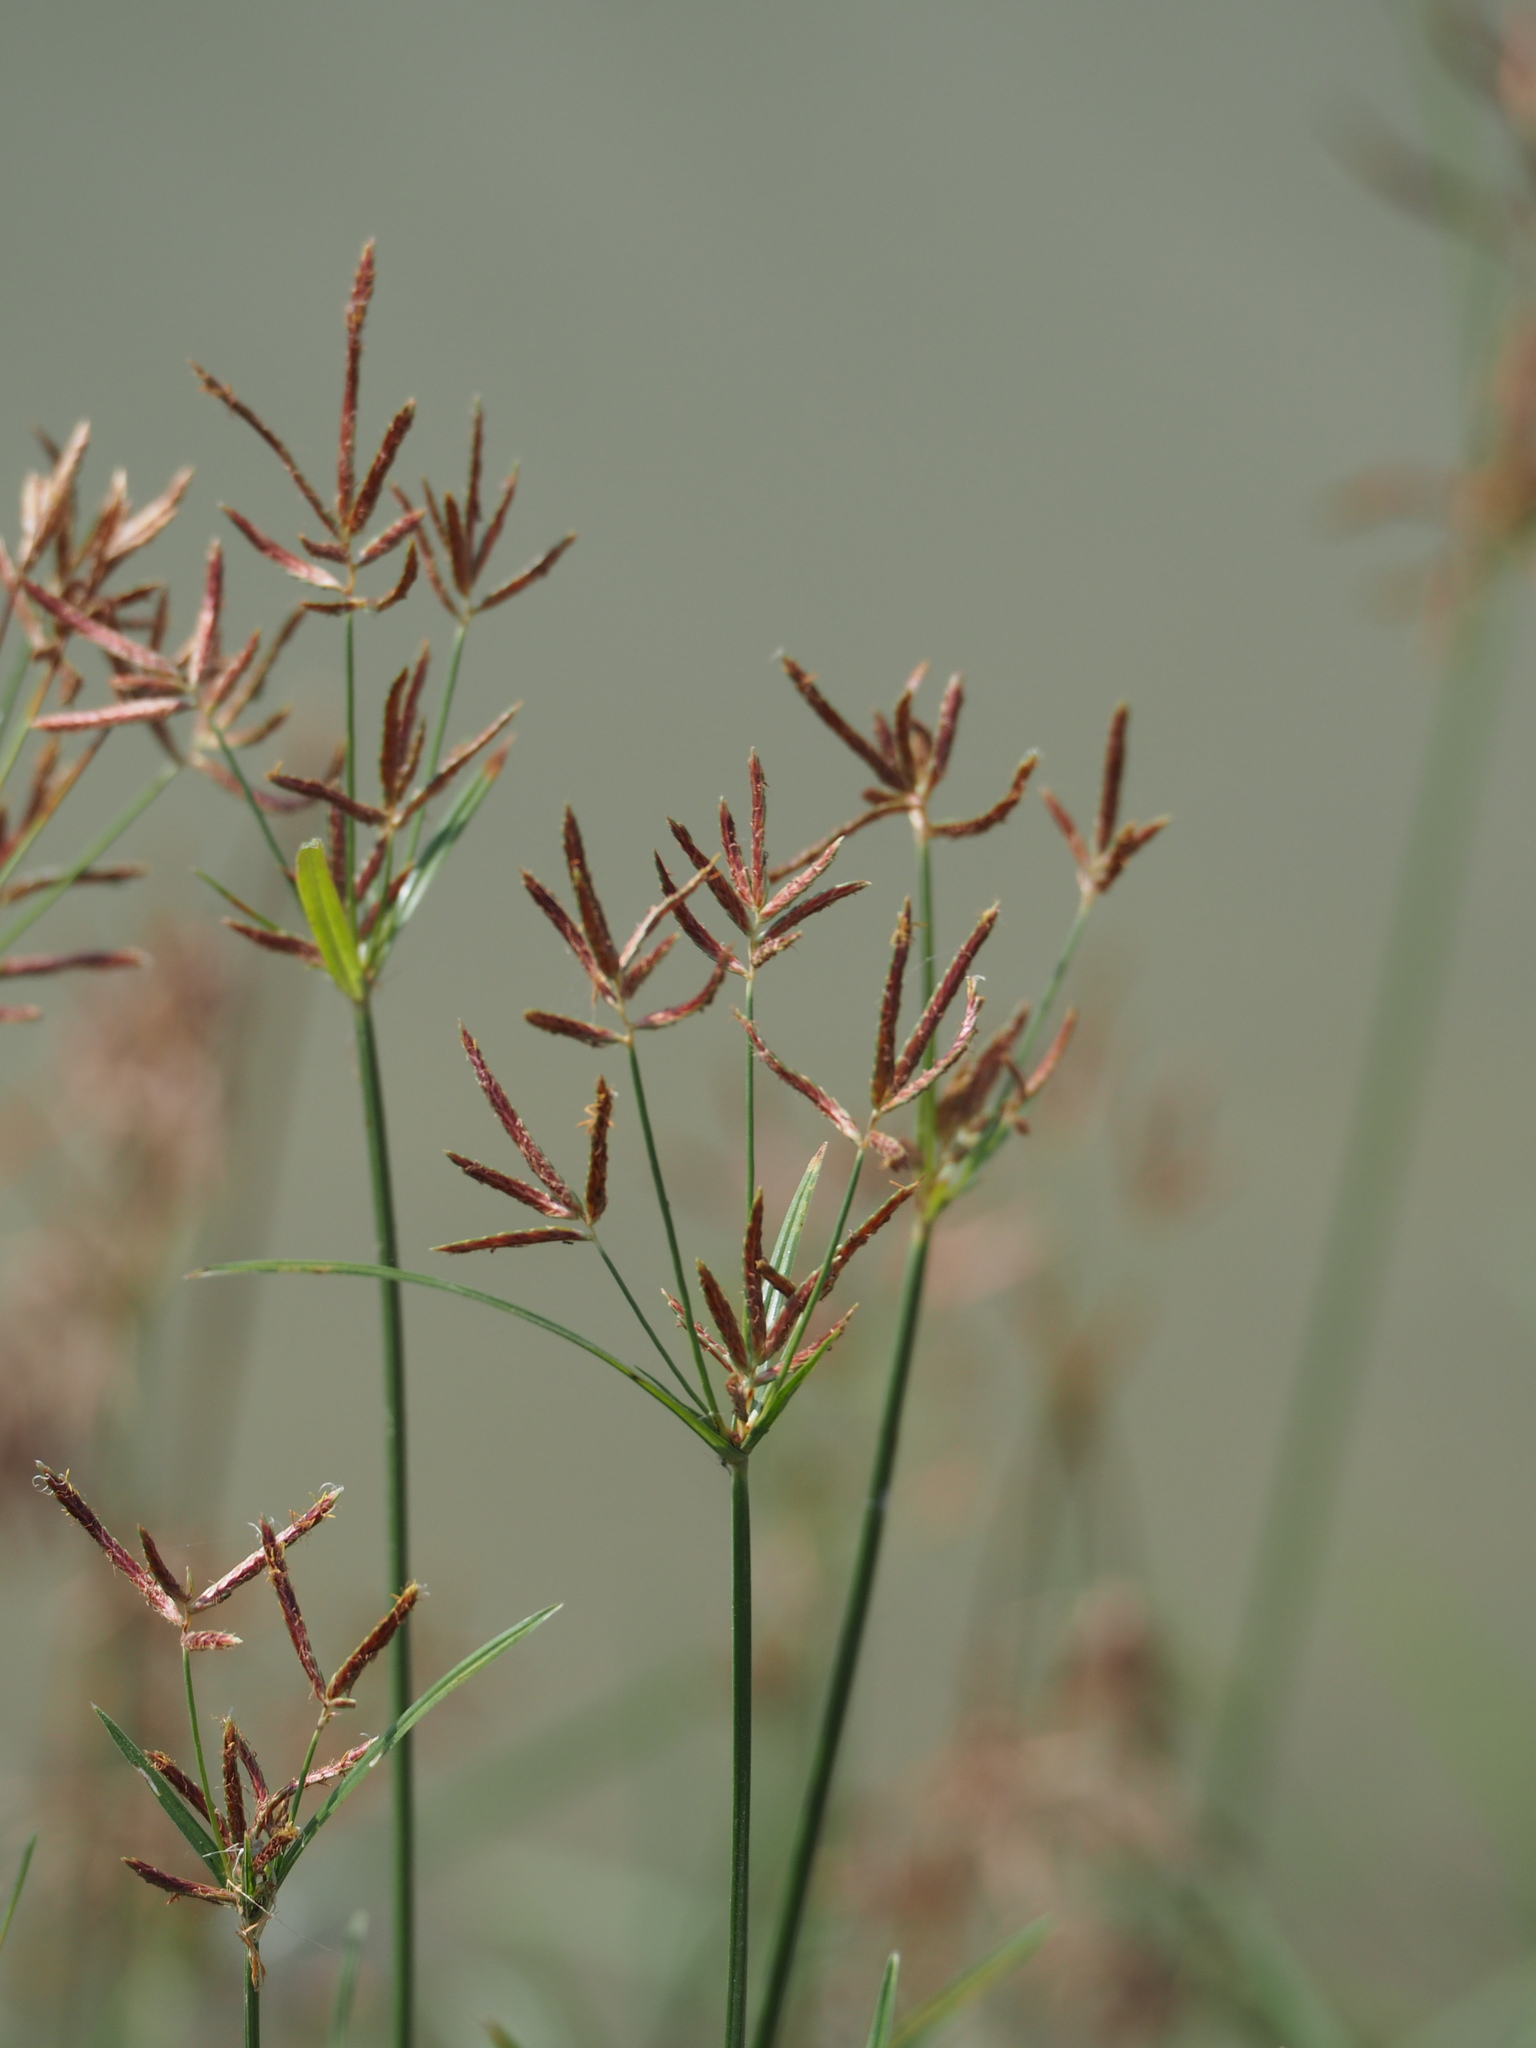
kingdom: Plantae
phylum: Tracheophyta
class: Liliopsida
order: Poales
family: Cyperaceae
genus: Cyperus
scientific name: Cyperus rotundus
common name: Nutgrass
